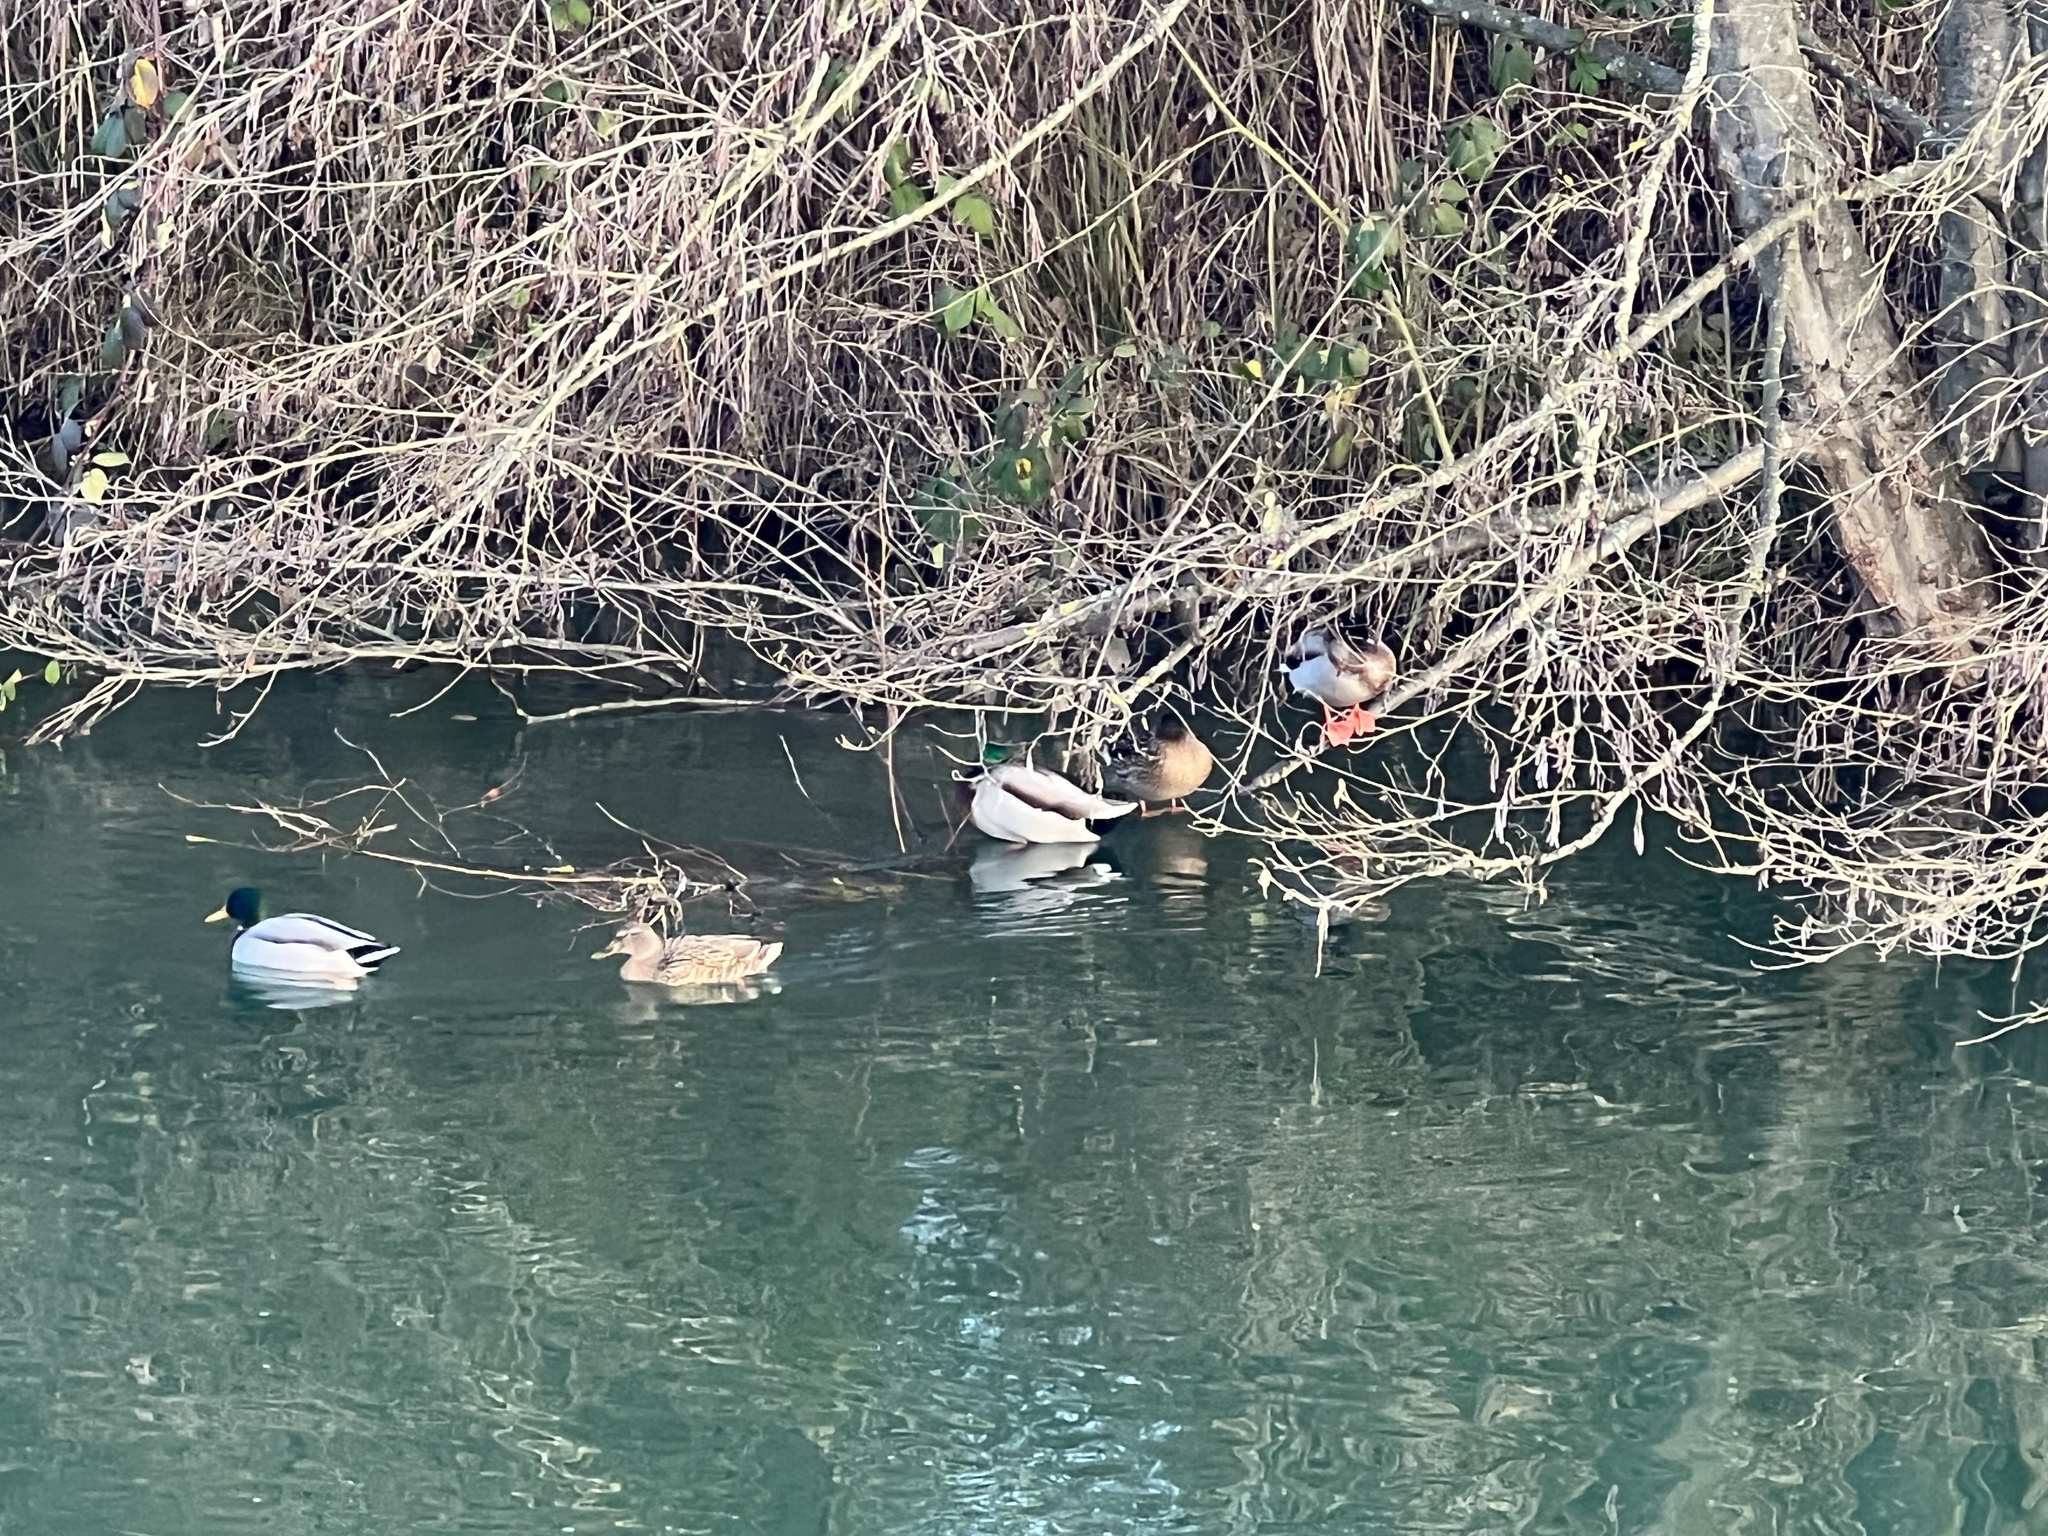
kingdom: Animalia
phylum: Chordata
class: Aves
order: Anseriformes
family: Anatidae
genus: Anas
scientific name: Anas platyrhynchos
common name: Mallard
